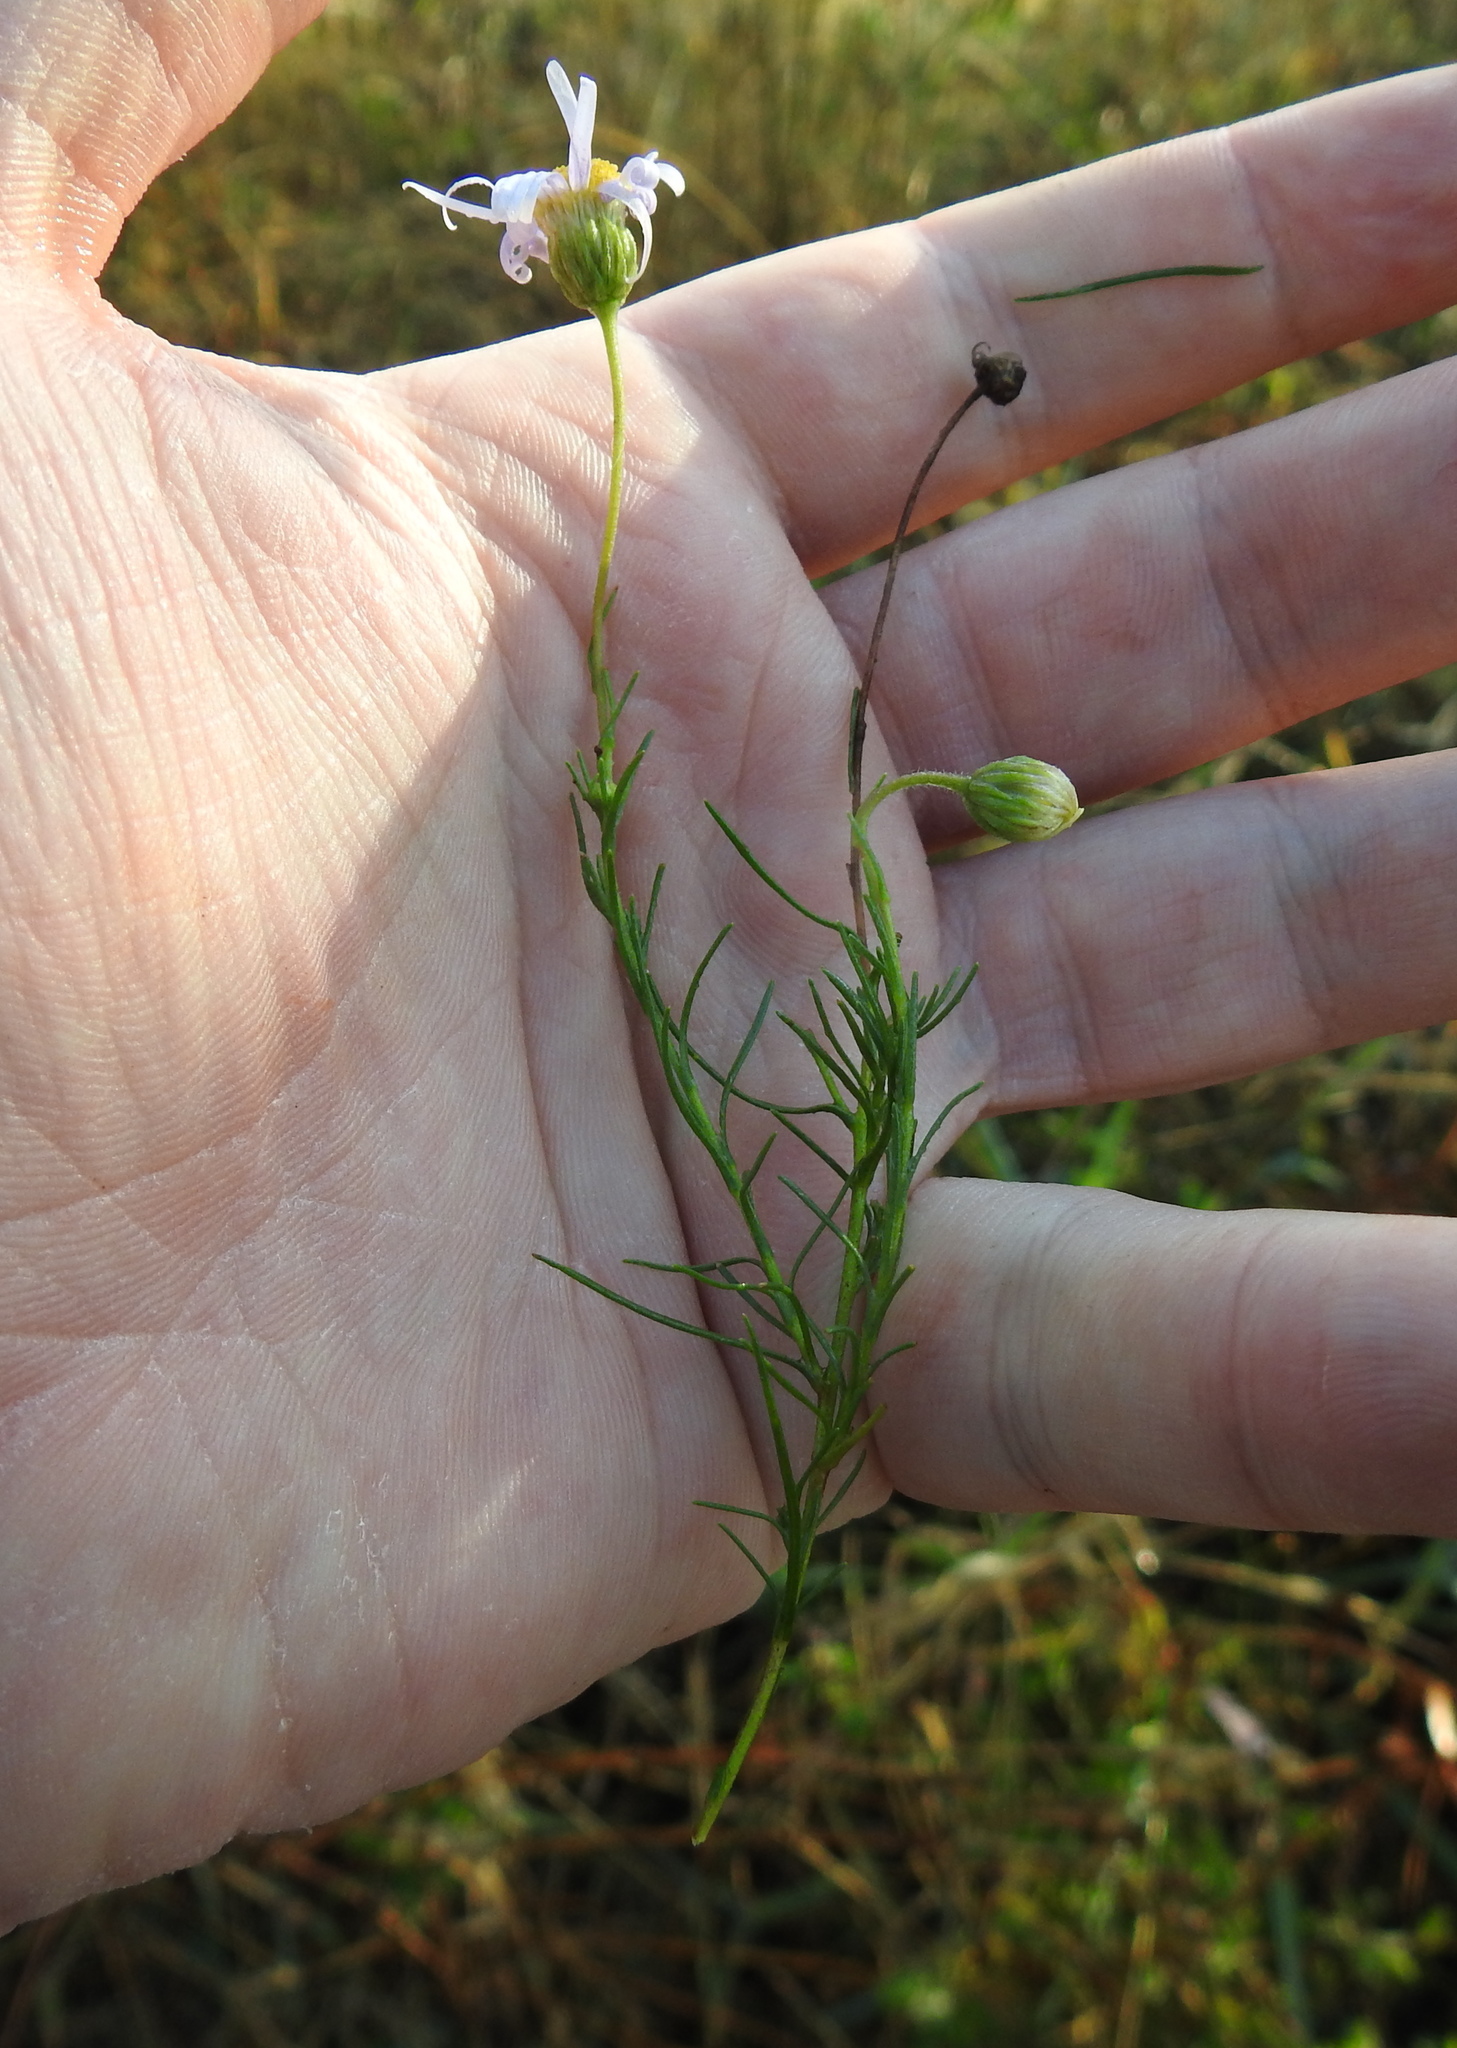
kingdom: Plantae
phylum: Tracheophyta
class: Magnoliopsida
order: Asterales
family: Asteraceae
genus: Athrixia
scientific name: Athrixia elata
